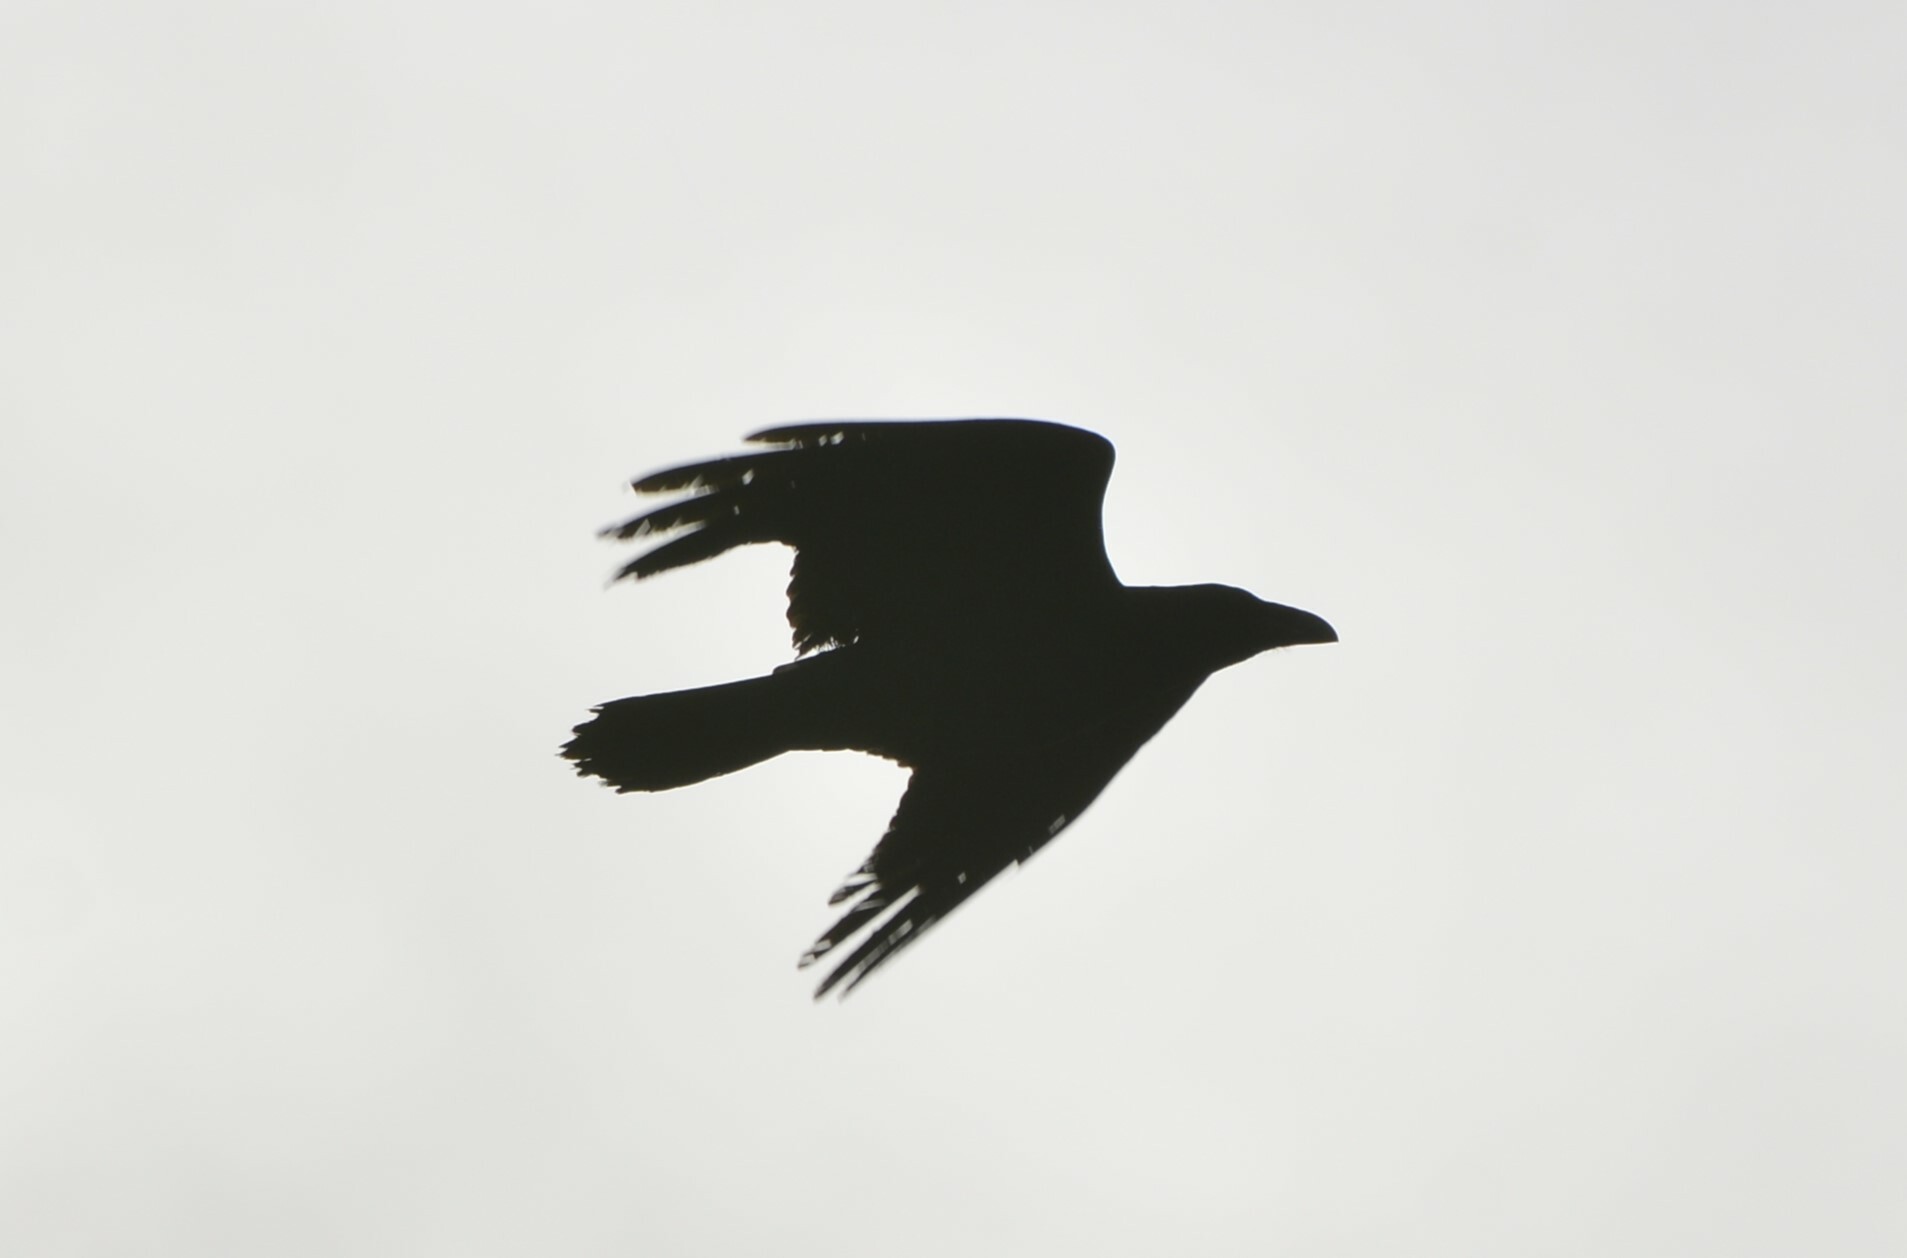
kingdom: Animalia
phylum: Chordata
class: Aves
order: Passeriformes
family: Corvidae
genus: Corvus
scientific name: Corvus corax
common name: Common raven
